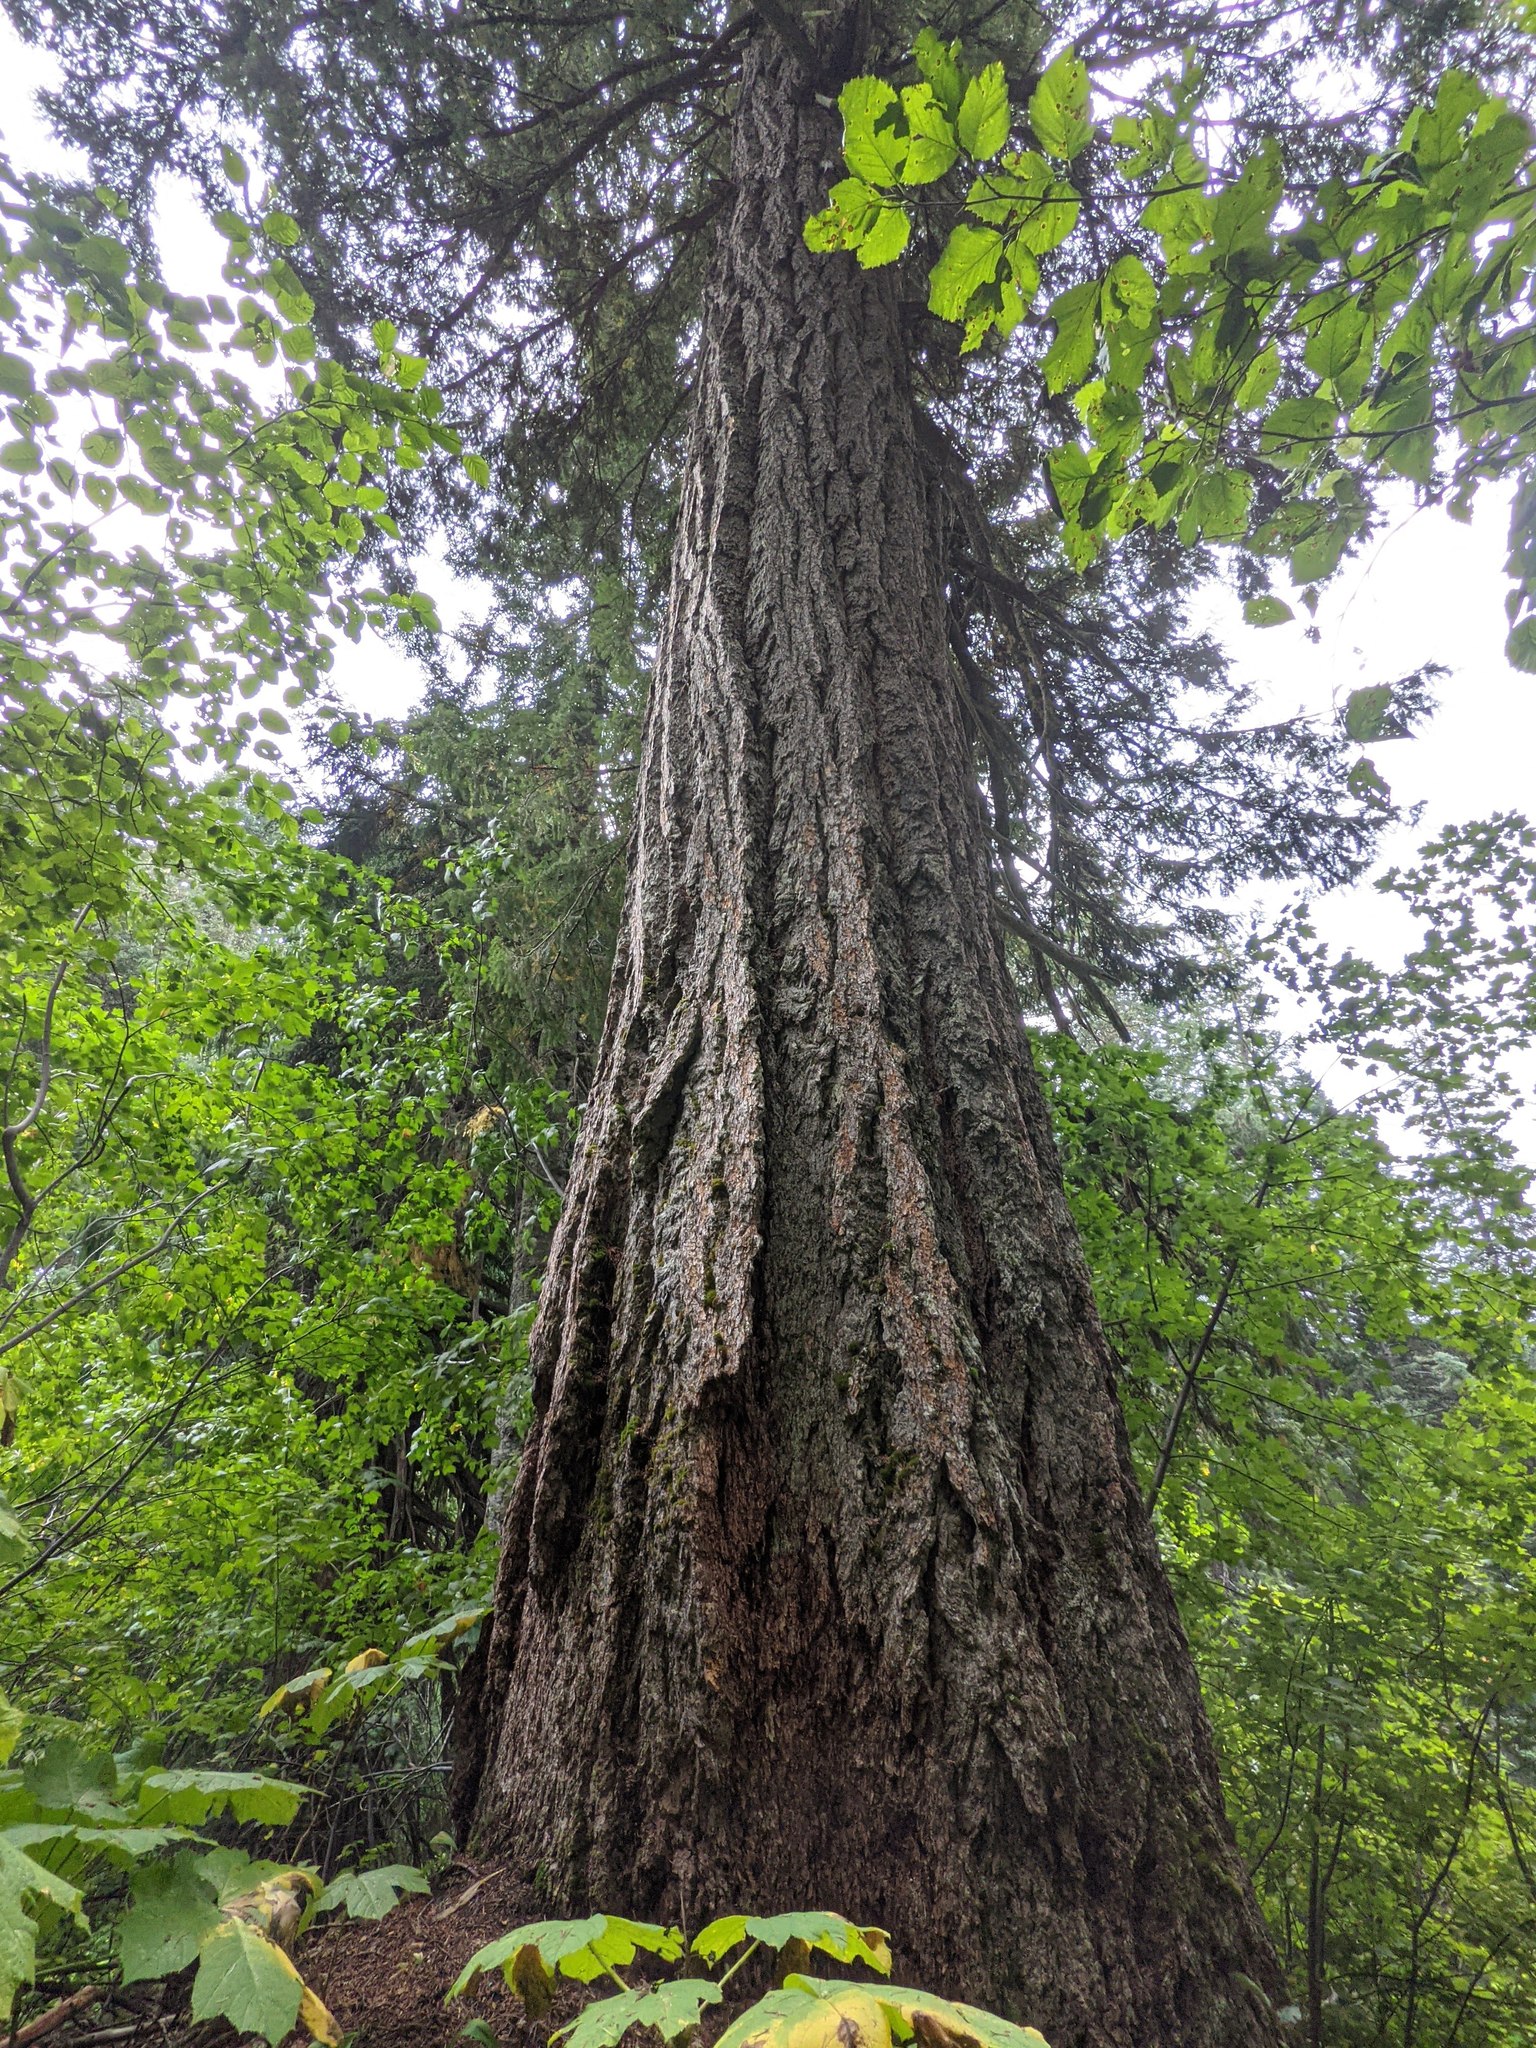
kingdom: Plantae
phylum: Tracheophyta
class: Pinopsida
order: Pinales
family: Pinaceae
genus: Pseudotsuga
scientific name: Pseudotsuga menziesii
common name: Douglas fir
